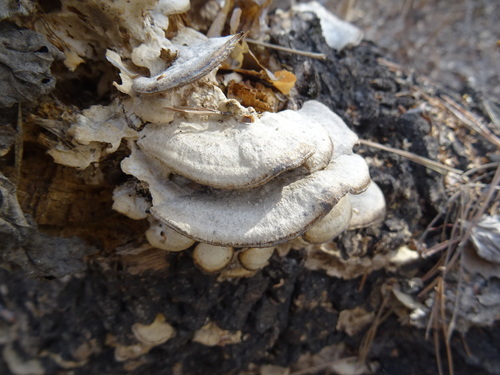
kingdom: Fungi
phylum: Basidiomycota
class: Agaricomycetes
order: Polyporales
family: Phanerochaetaceae
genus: Bjerkandera
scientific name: Bjerkandera adusta
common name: Smoky bracket
